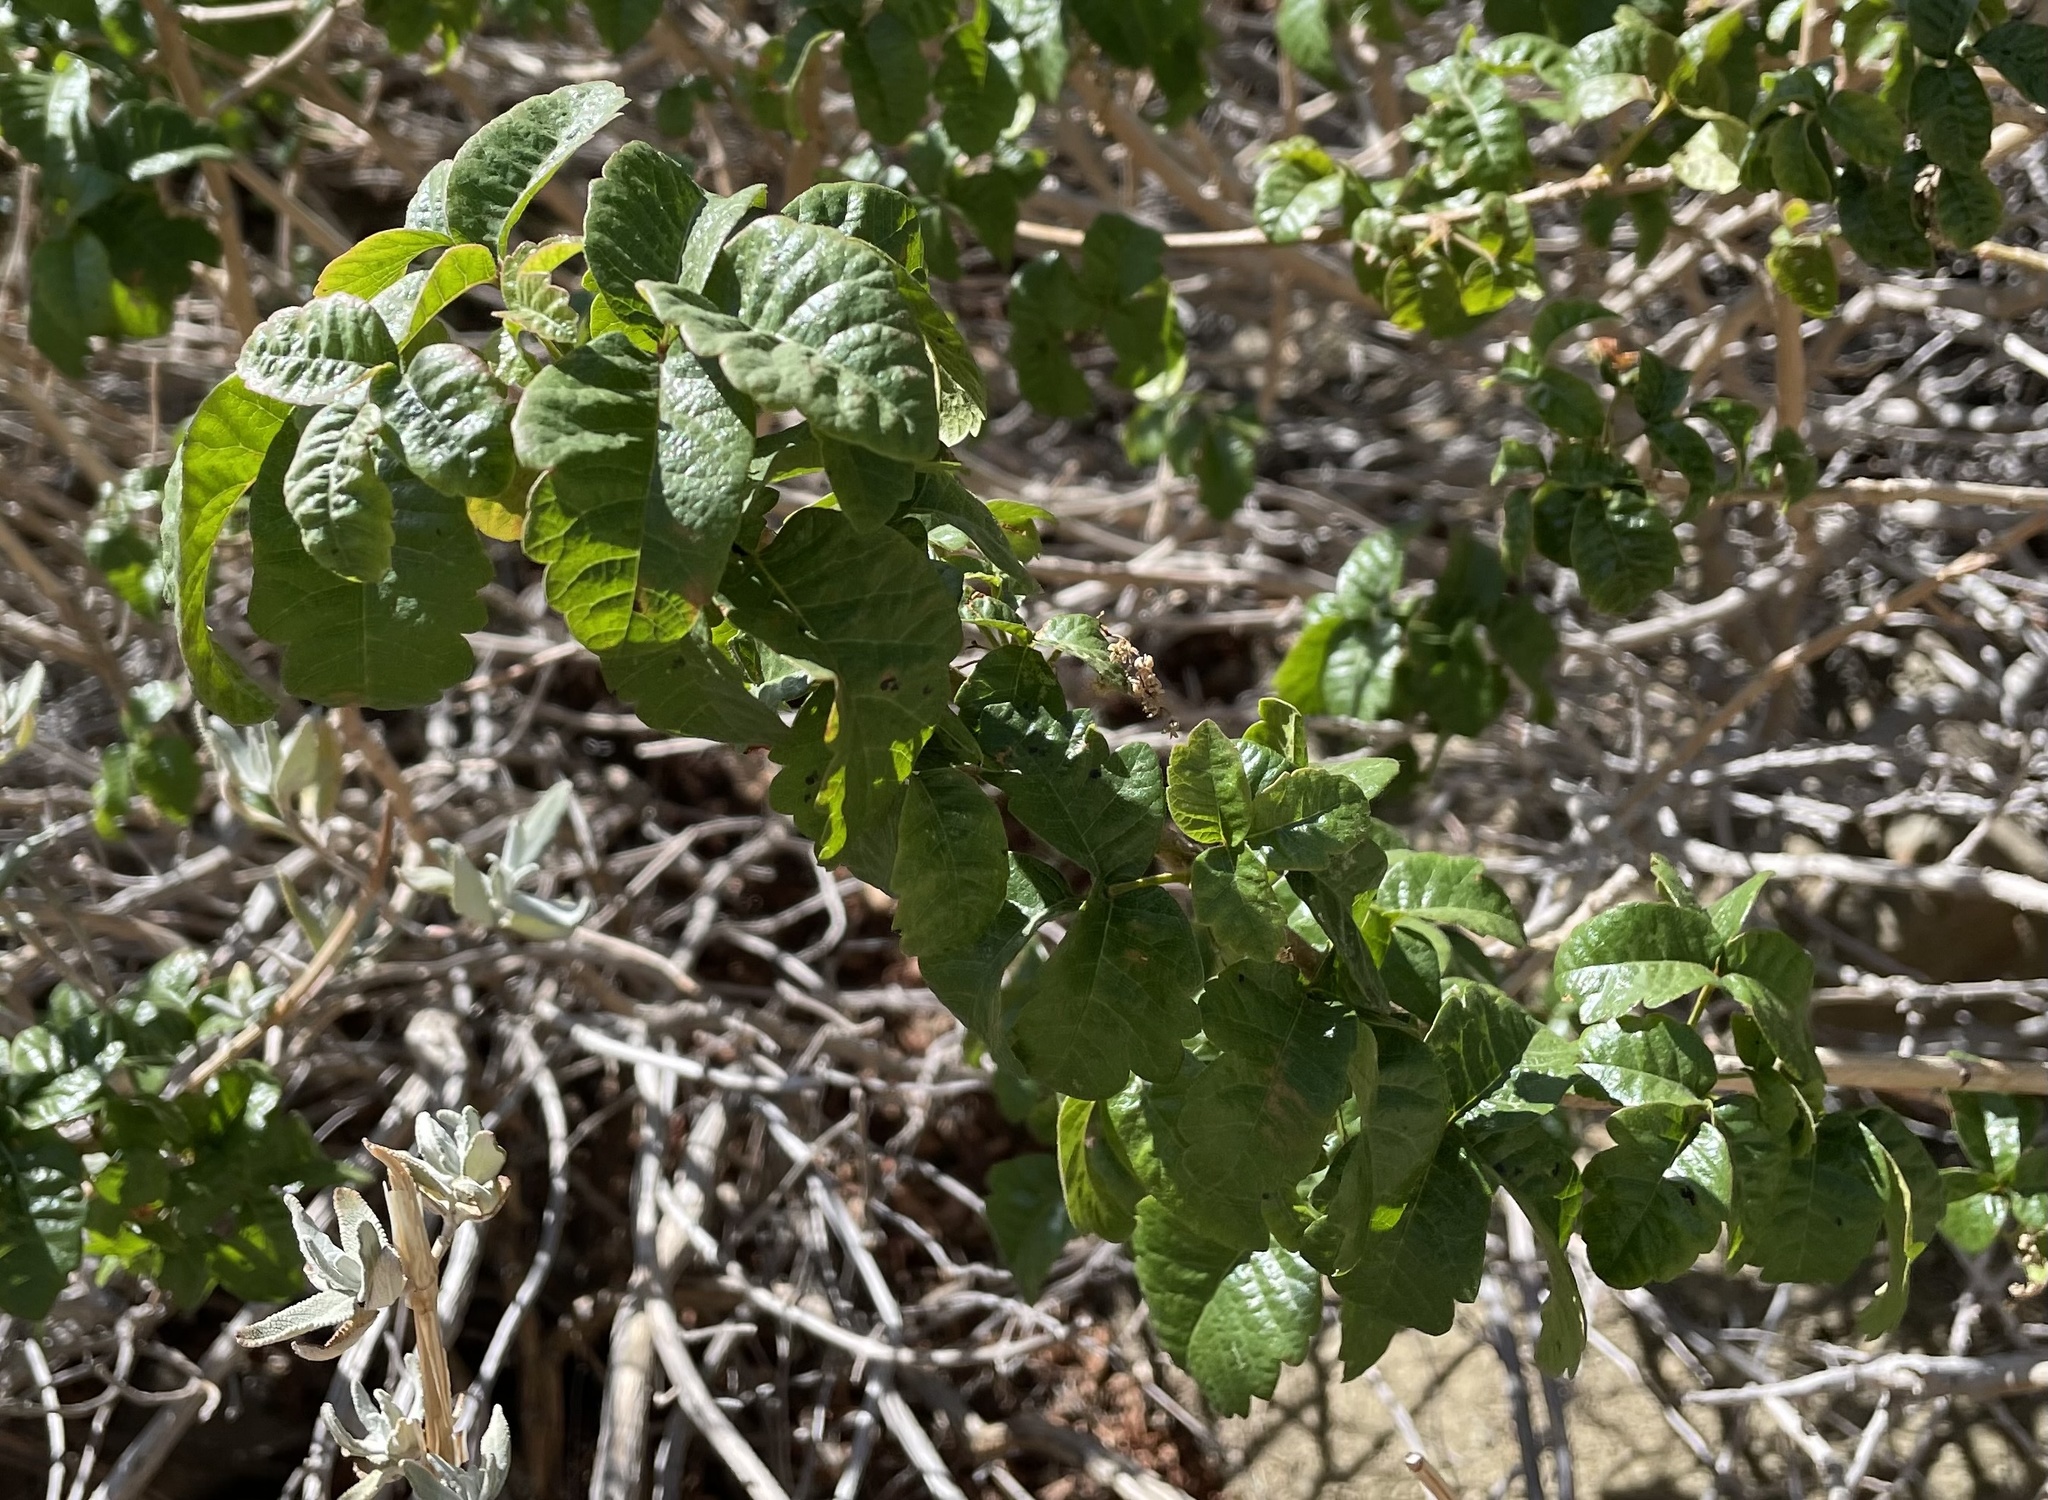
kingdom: Plantae
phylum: Tracheophyta
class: Magnoliopsida
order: Sapindales
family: Anacardiaceae
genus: Toxicodendron
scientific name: Toxicodendron diversilobum
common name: Pacific poison-oak
